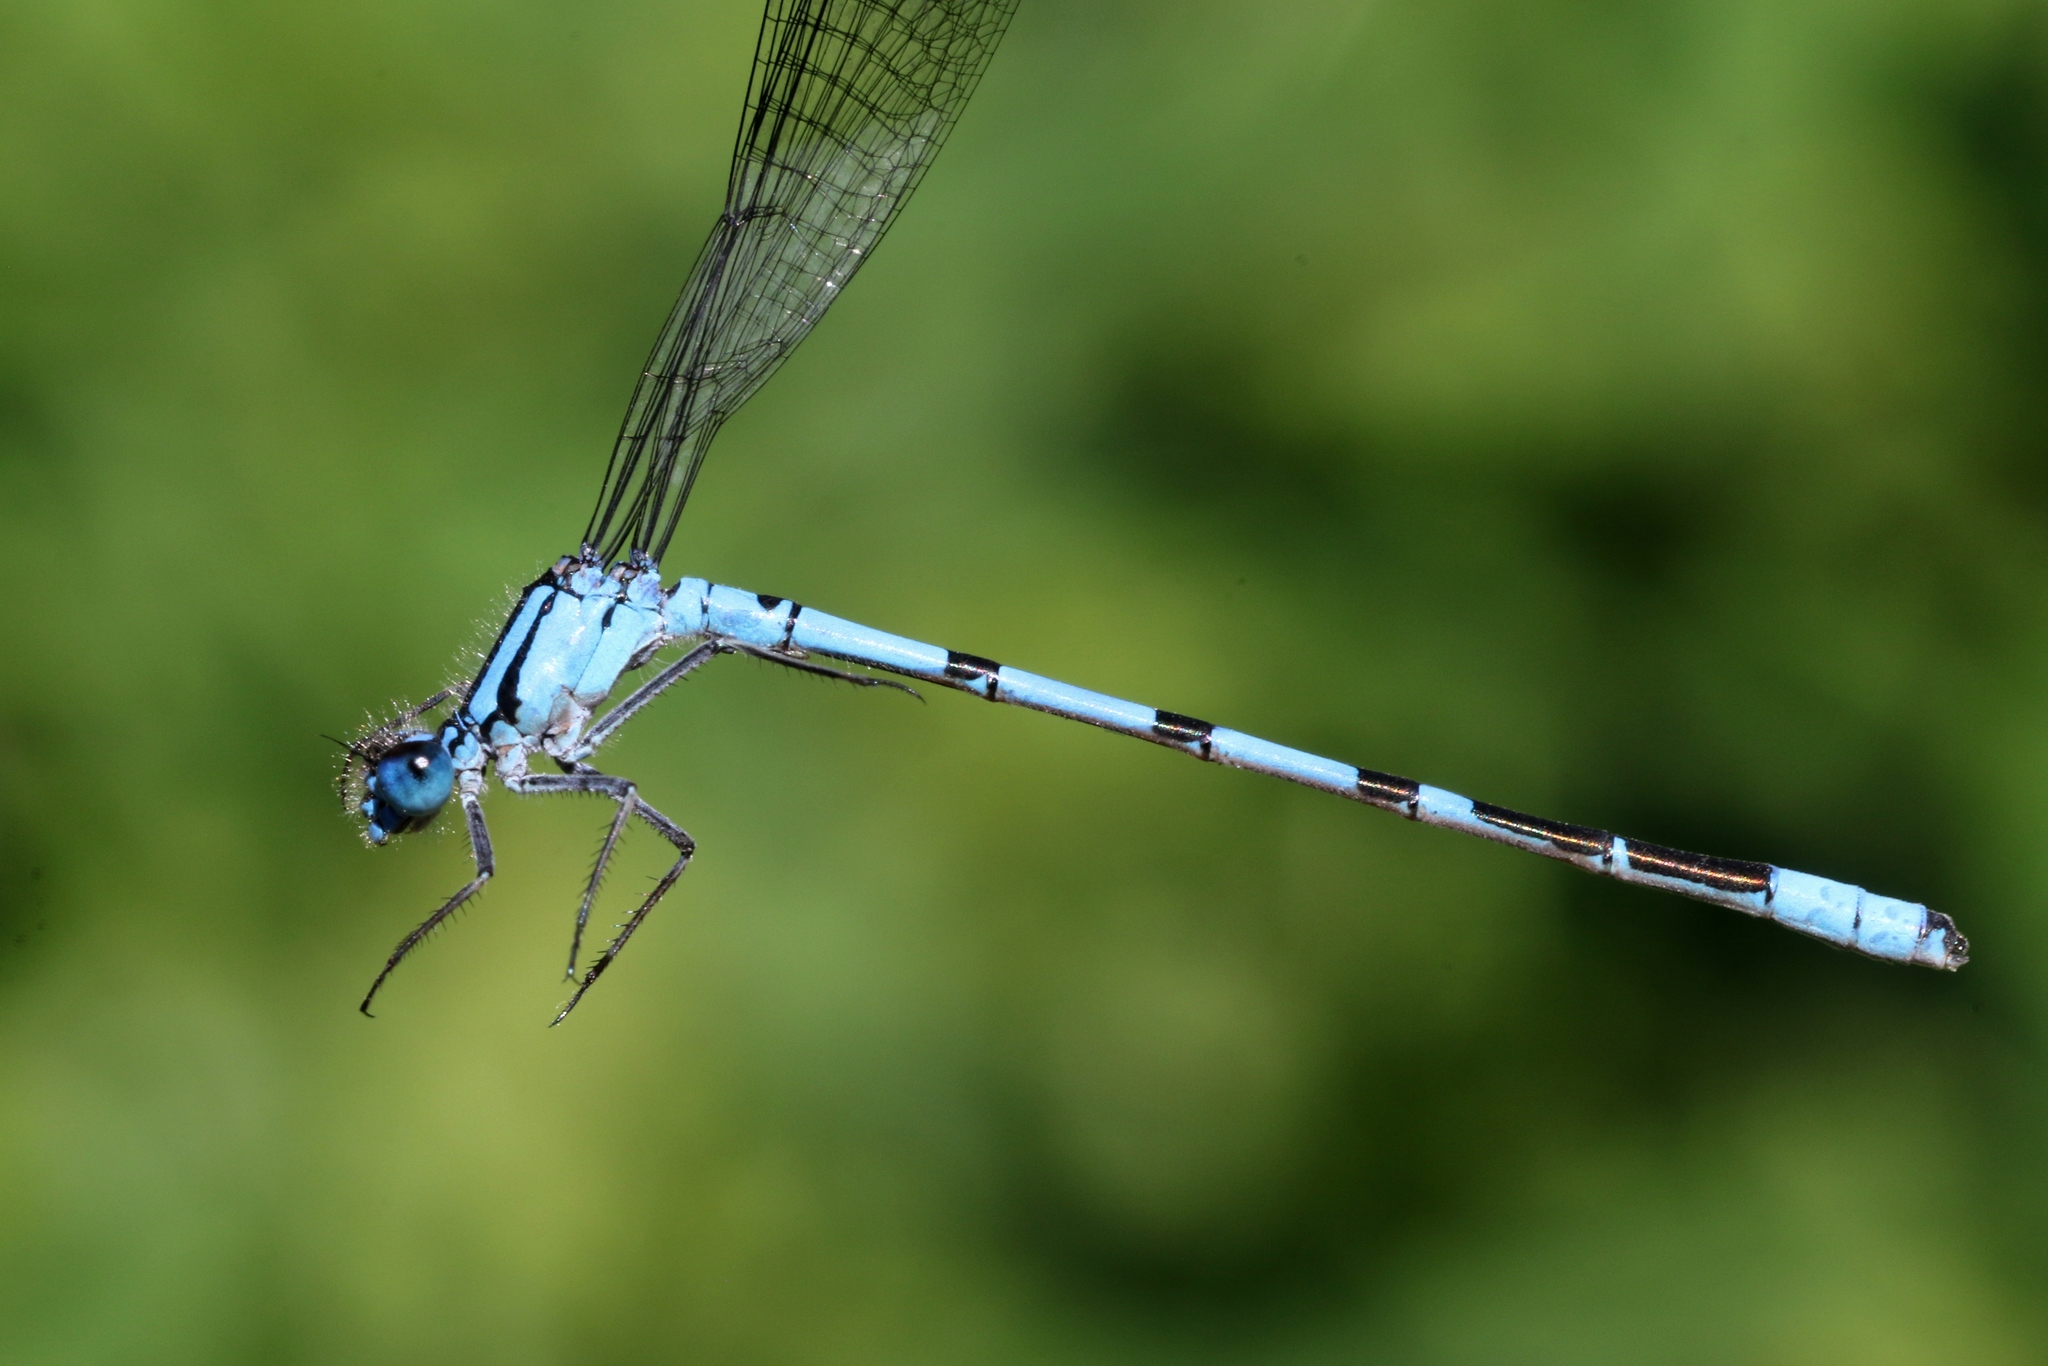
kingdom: Animalia
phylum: Arthropoda
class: Insecta
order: Odonata
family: Coenagrionidae
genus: Enallagma
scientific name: Enallagma boreale
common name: Boreal bluet
